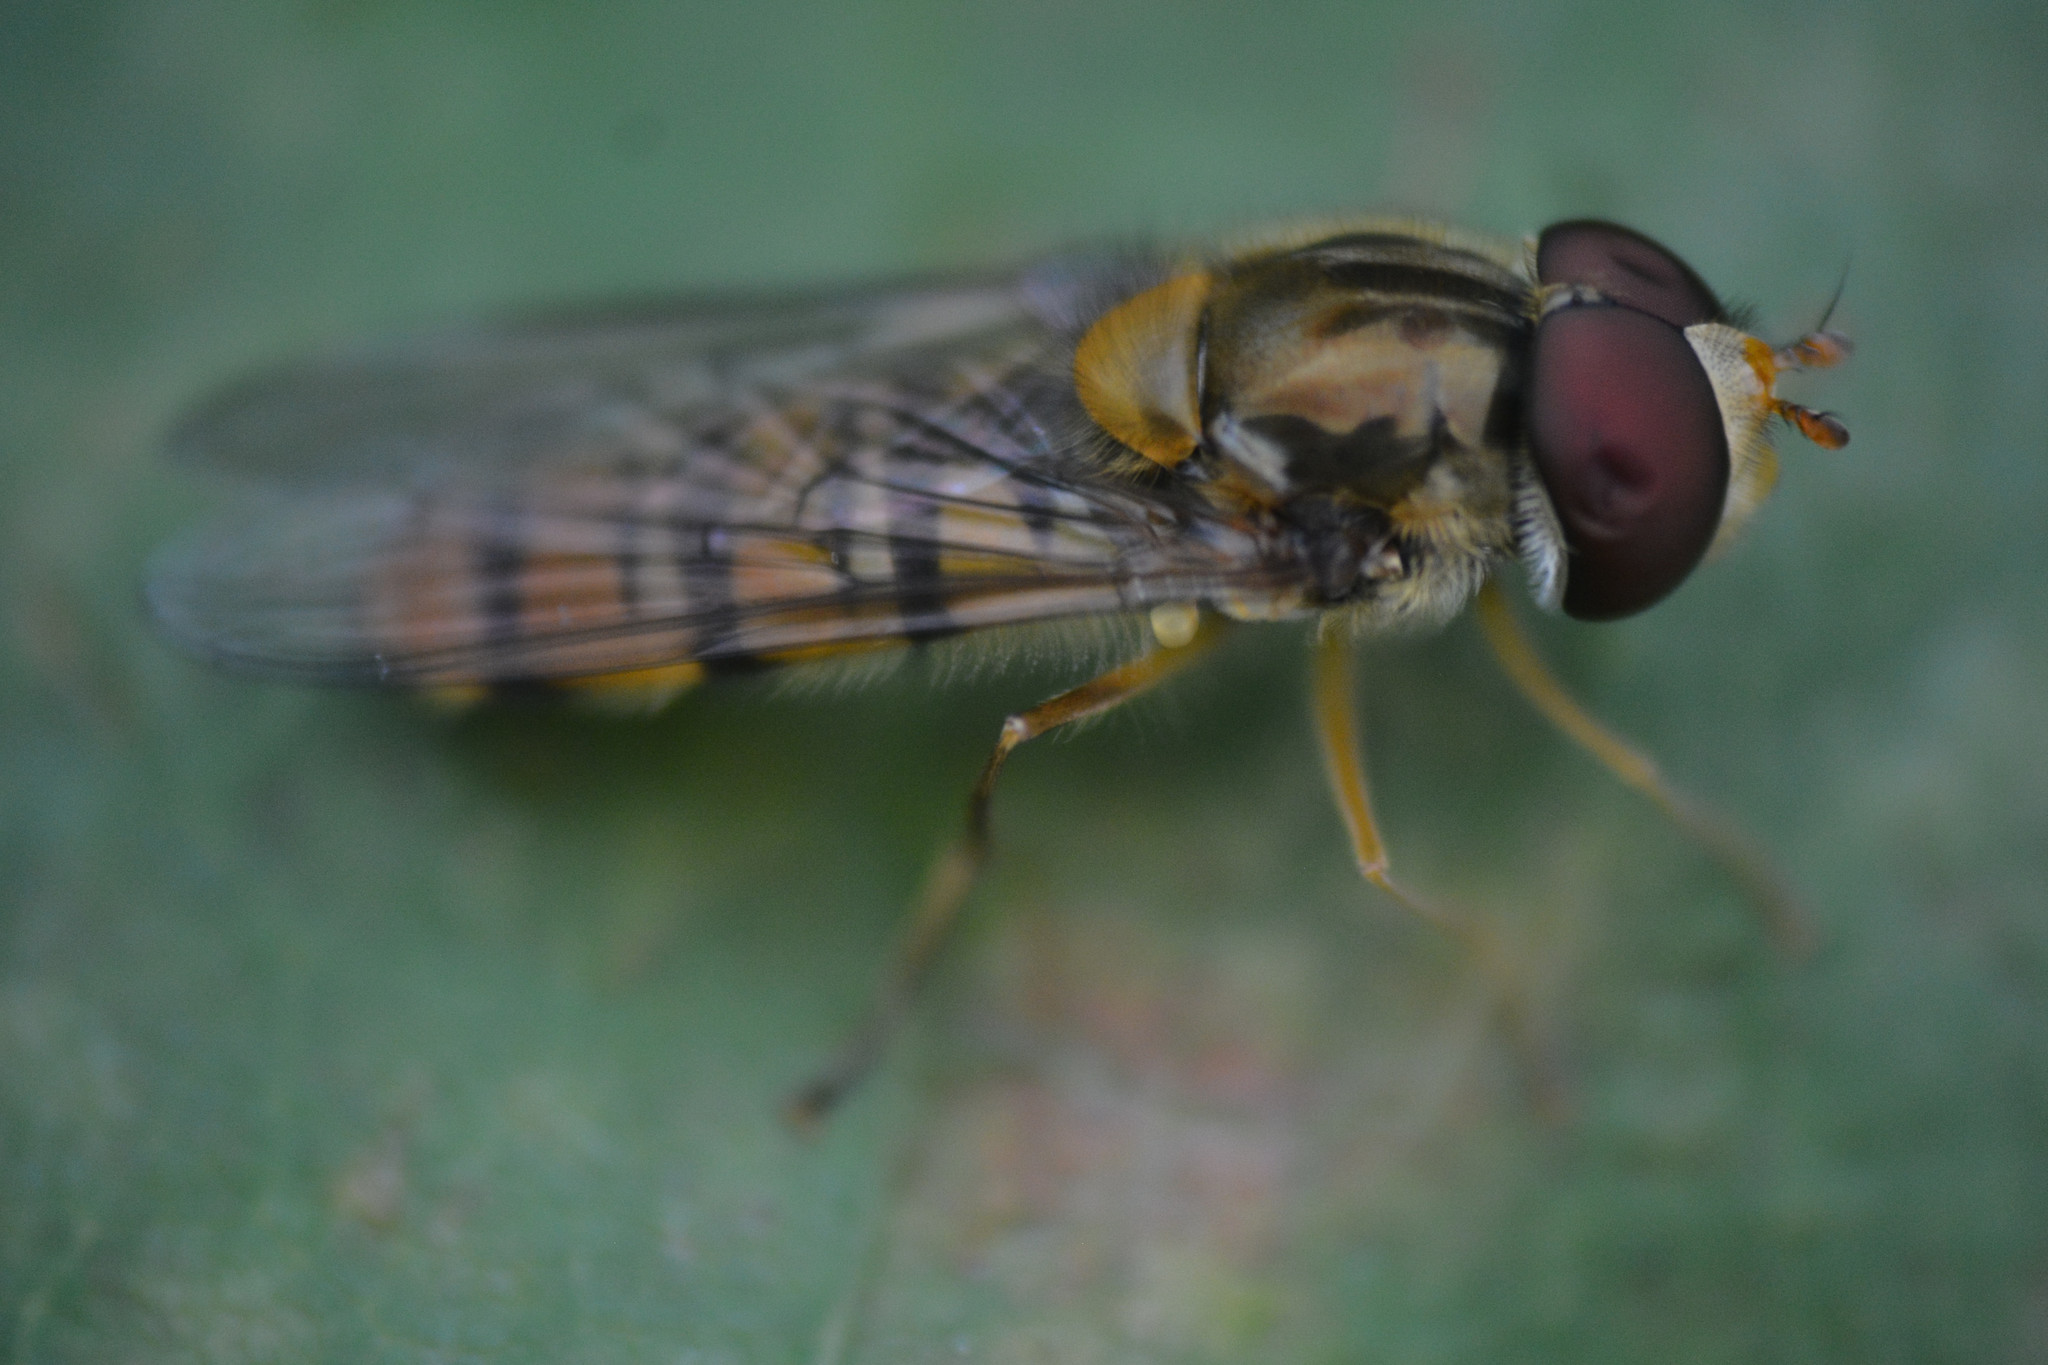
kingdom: Animalia
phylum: Arthropoda
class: Insecta
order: Diptera
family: Syrphidae
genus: Episyrphus
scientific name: Episyrphus balteatus
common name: Marmalade hoverfly
